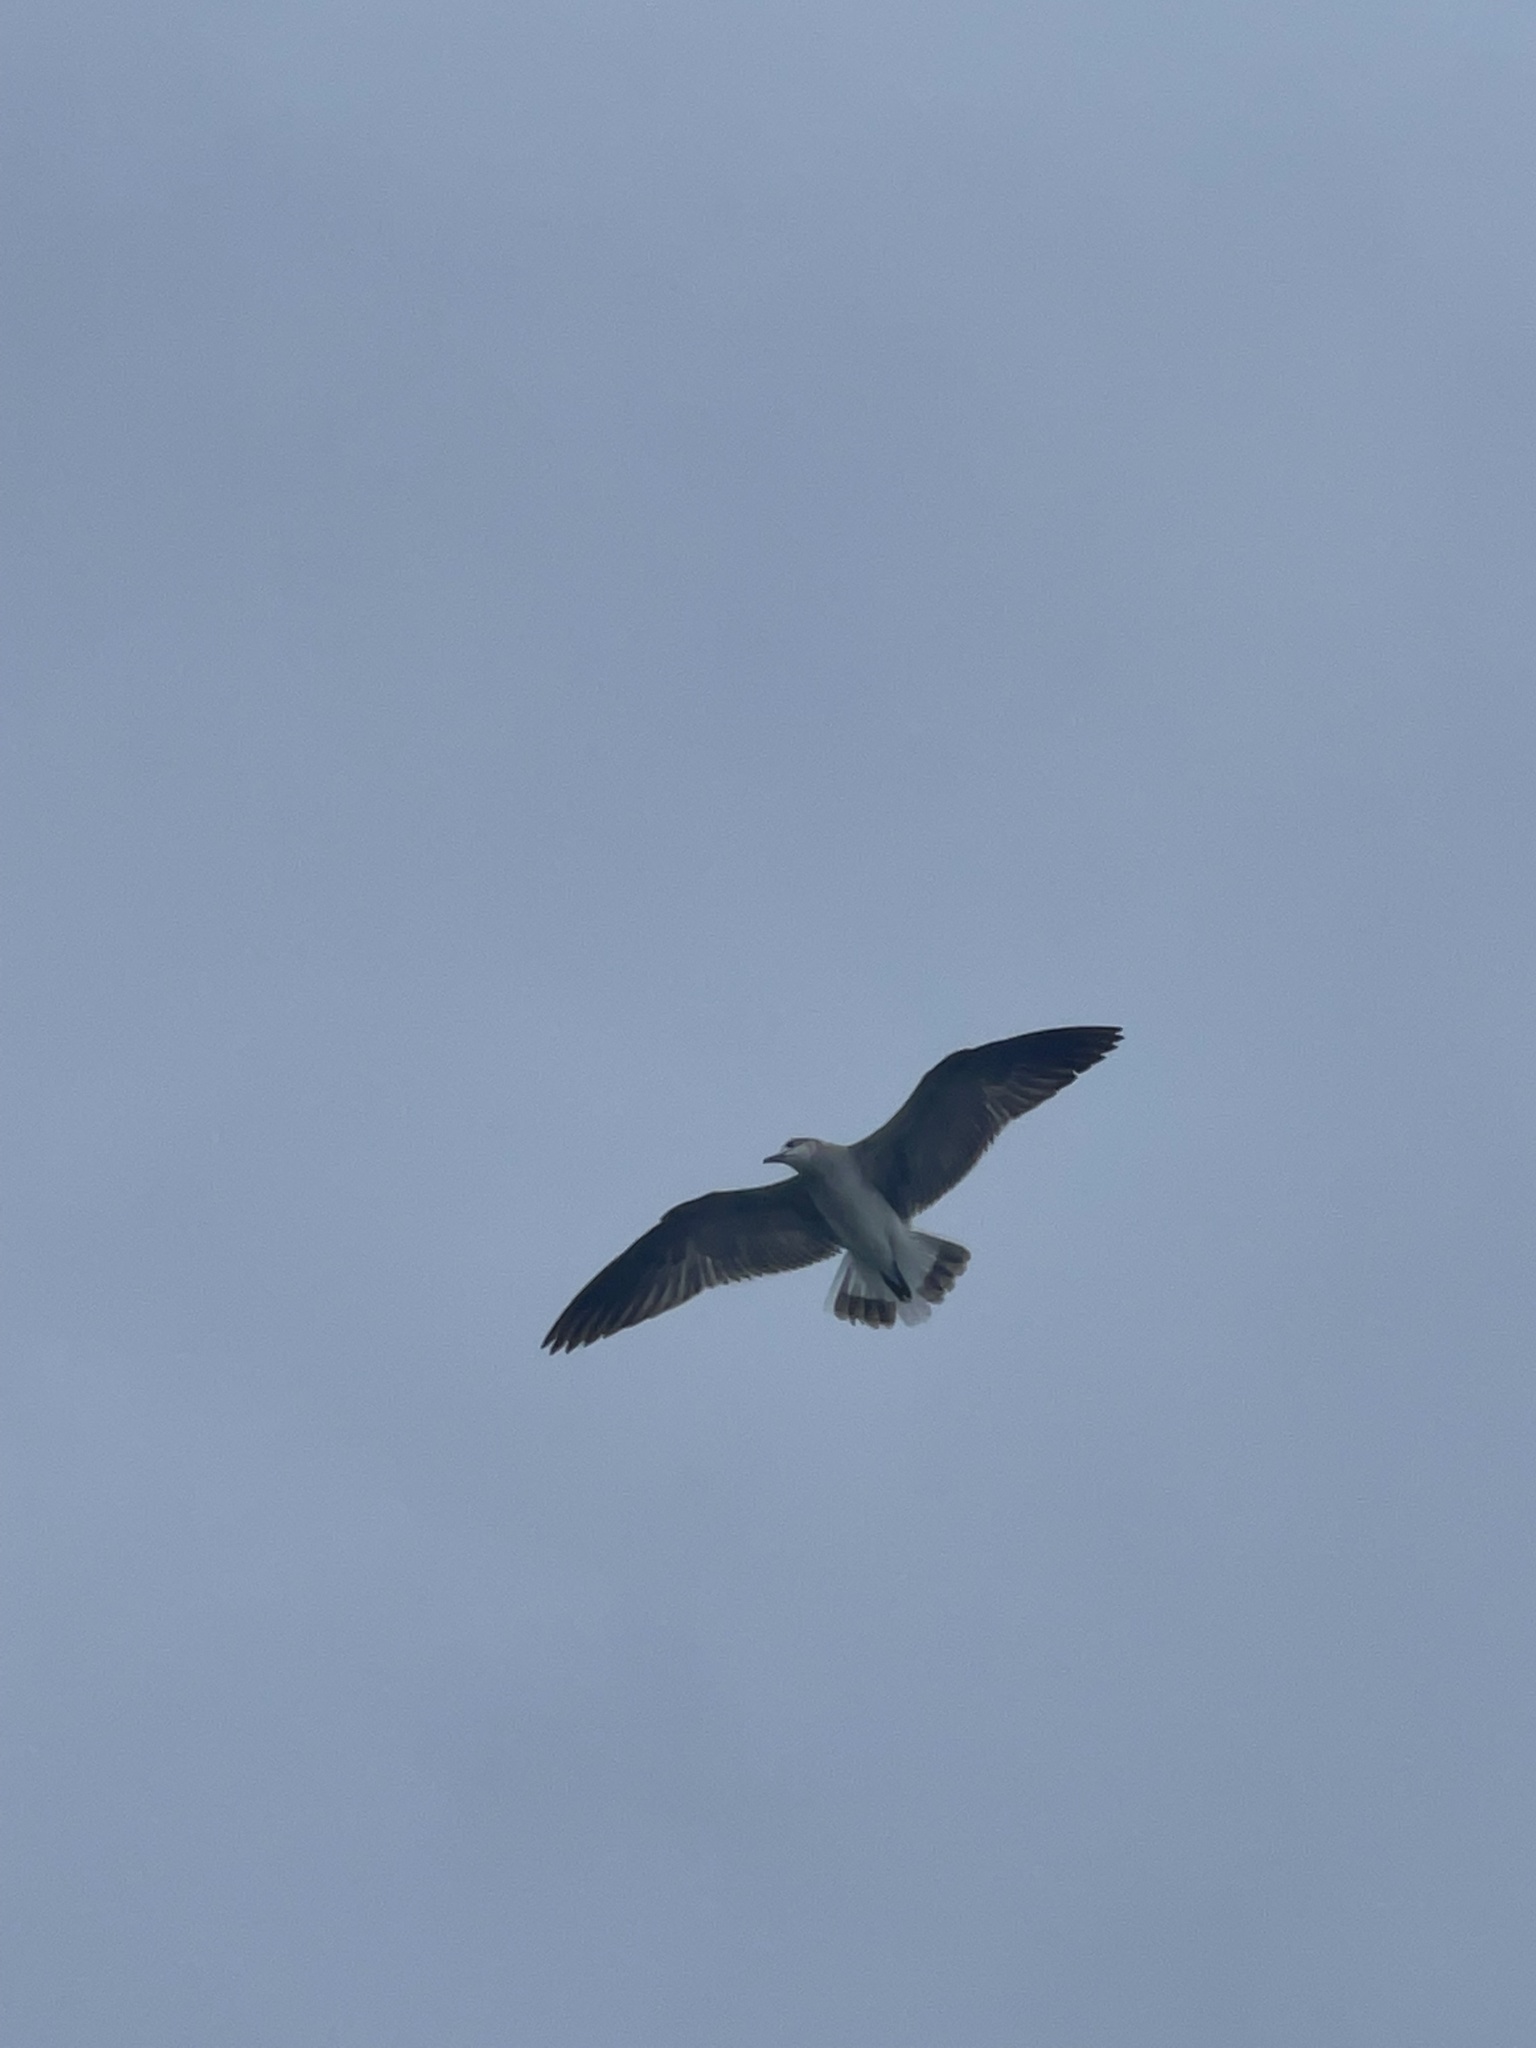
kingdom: Animalia
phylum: Chordata
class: Aves
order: Charadriiformes
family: Laridae
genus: Larus
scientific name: Larus argentatus
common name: Herring gull
